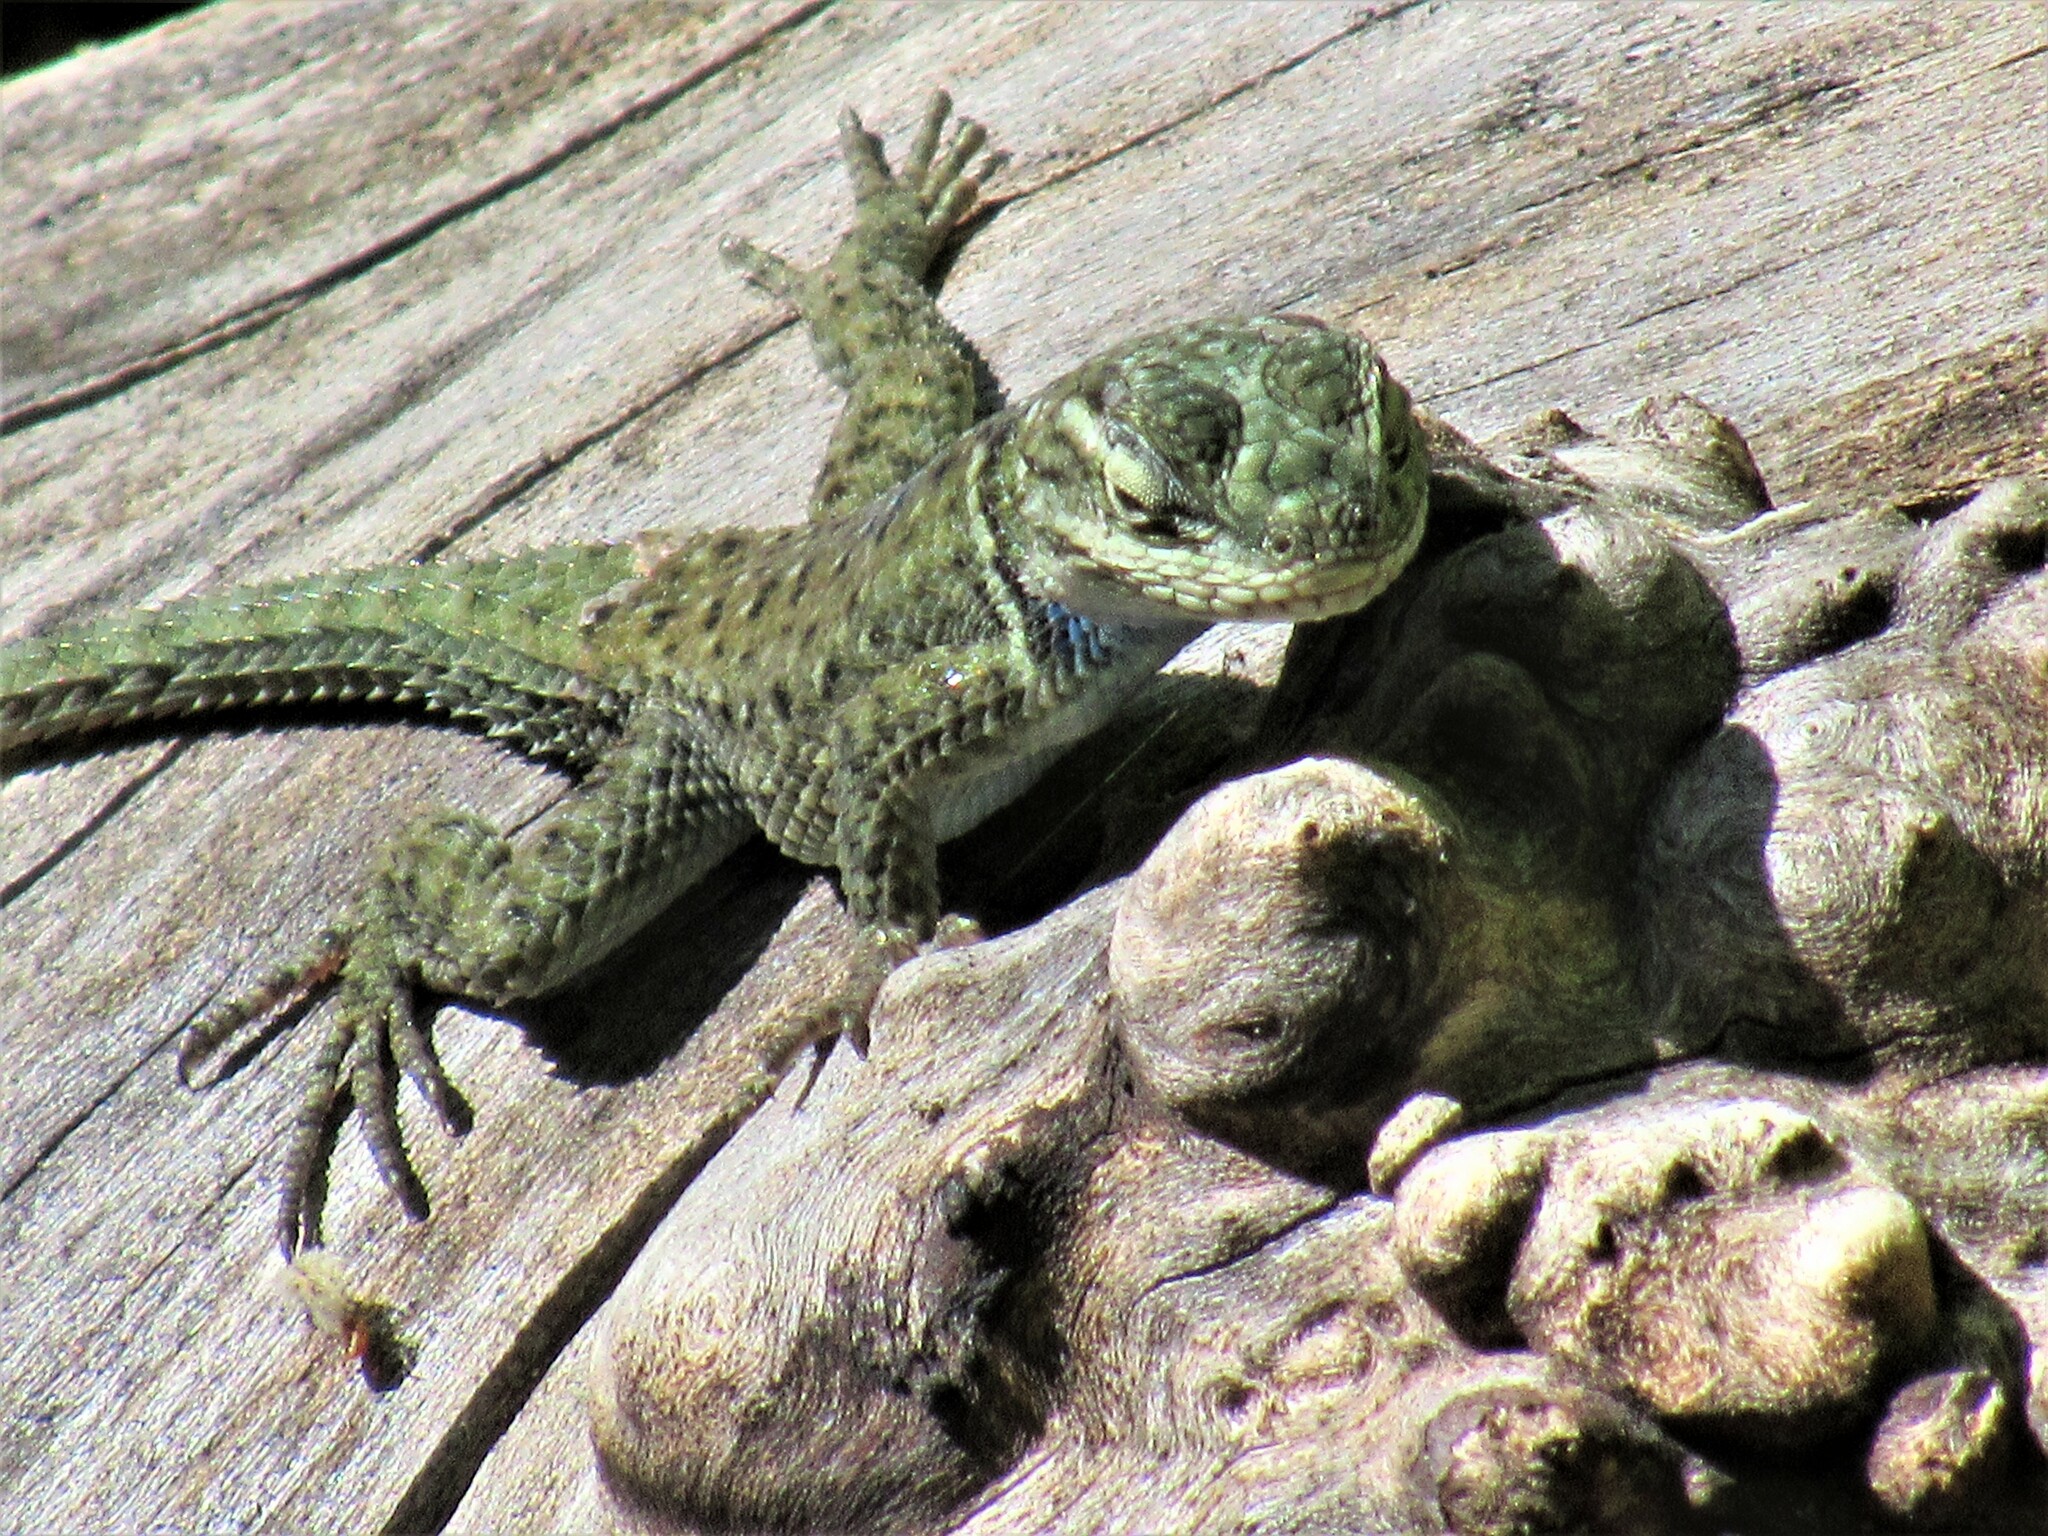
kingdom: Animalia
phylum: Chordata
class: Squamata
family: Phrynosomatidae
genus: Sceloporus
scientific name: Sceloporus jarrovii
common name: Yarrow's spiny lizard
